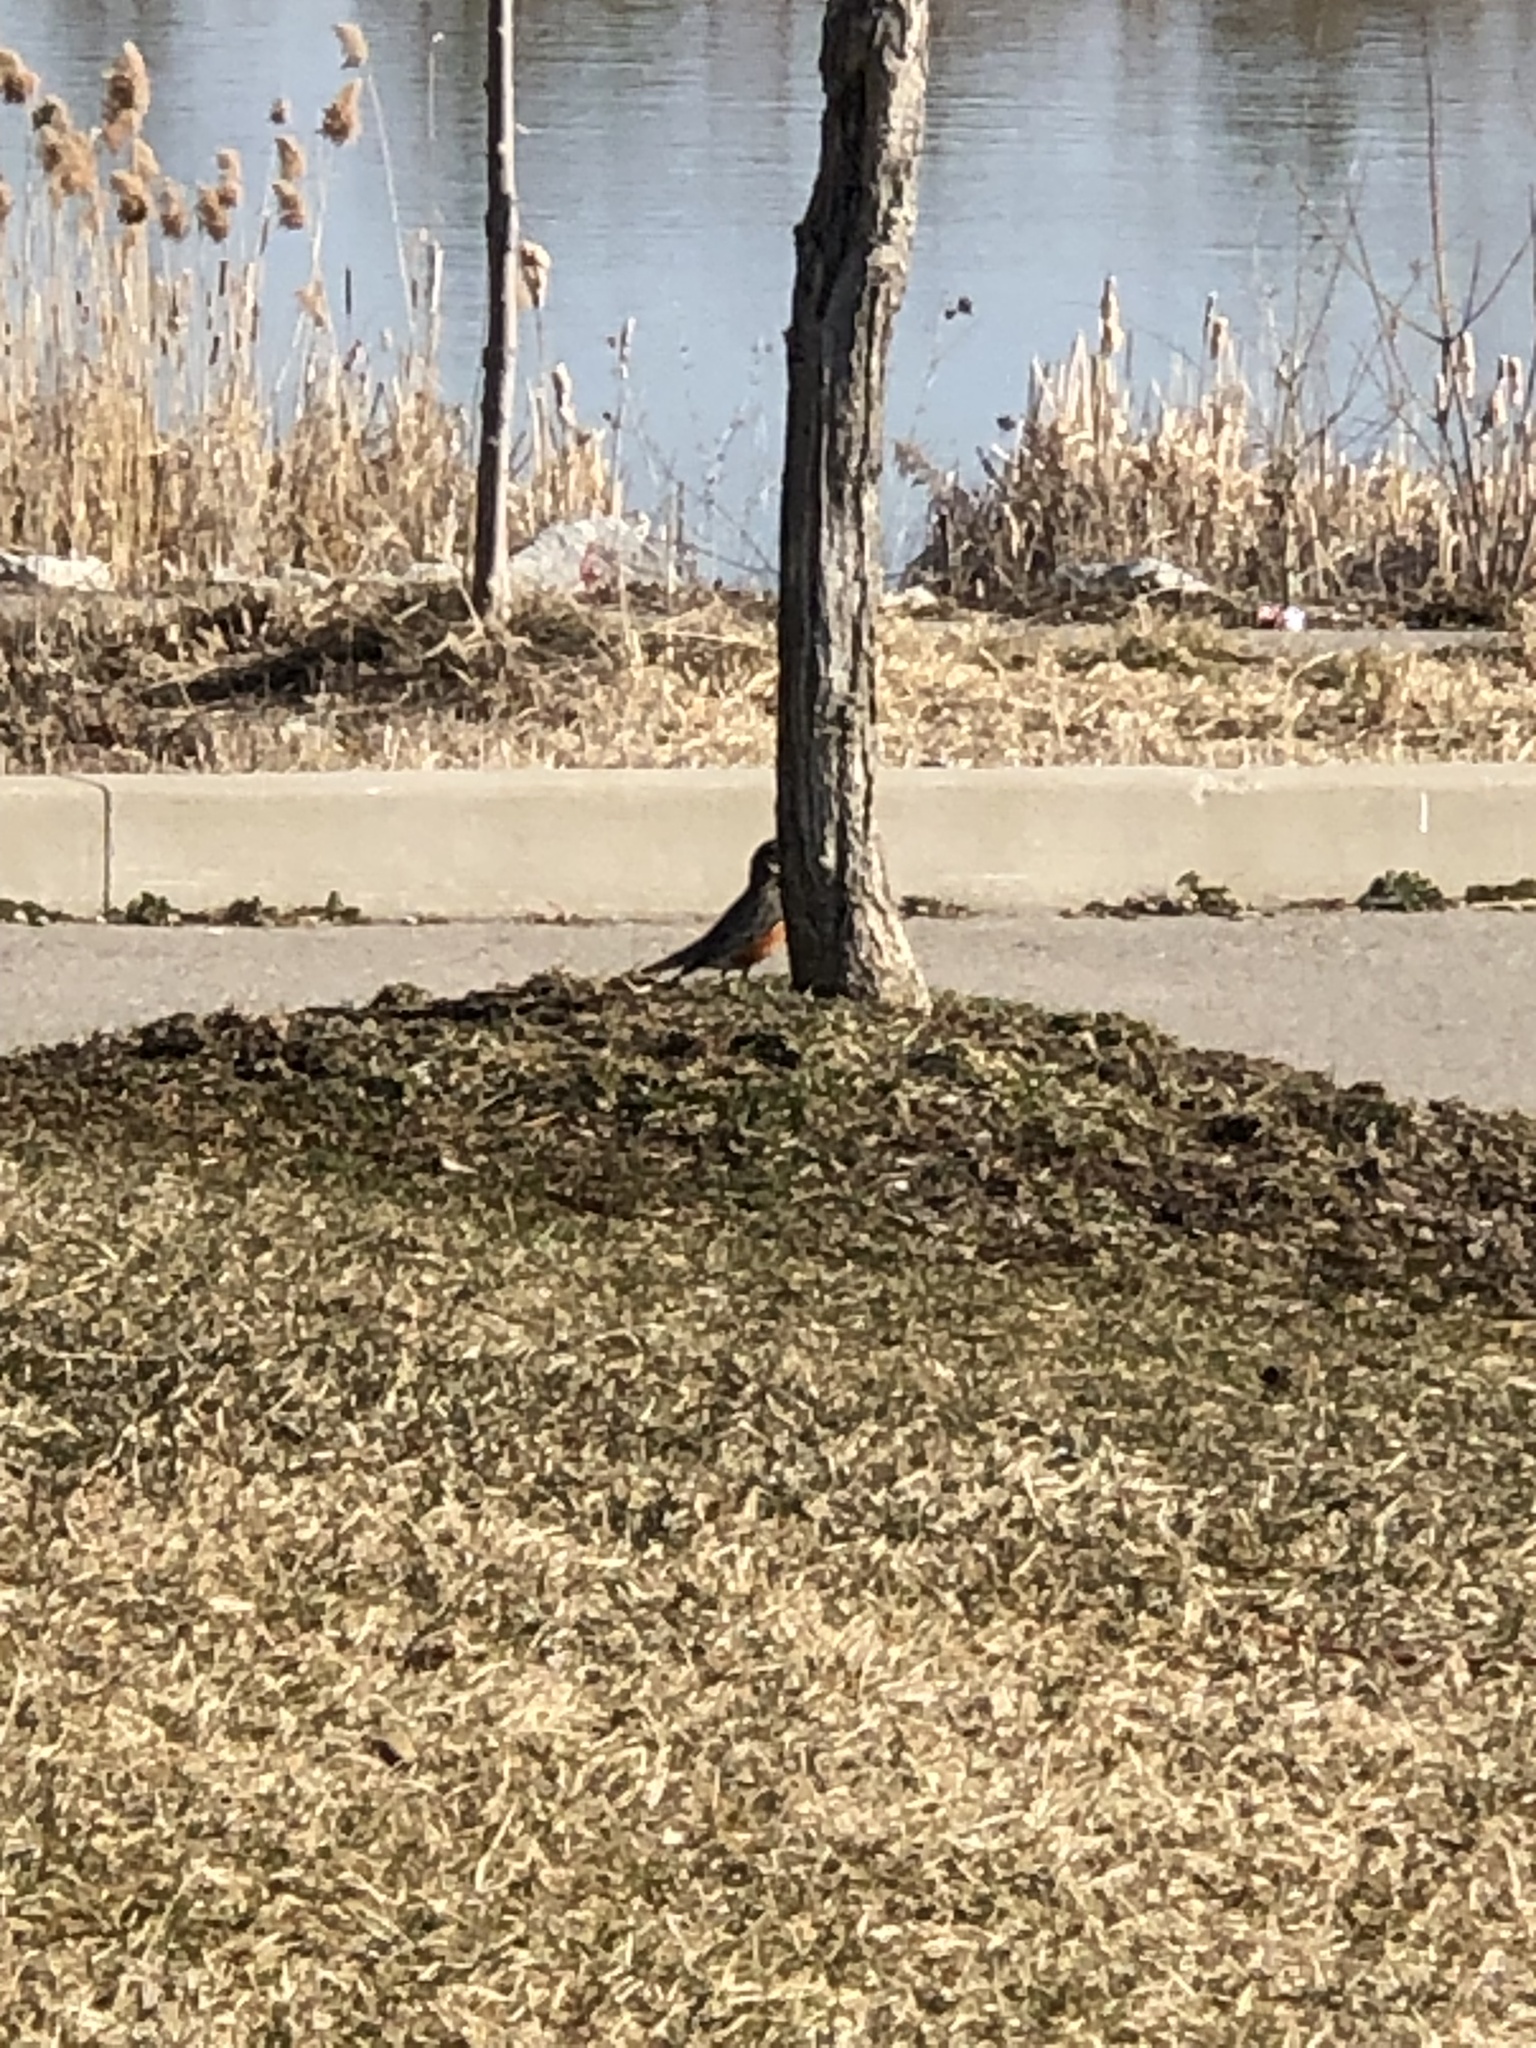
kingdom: Animalia
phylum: Chordata
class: Aves
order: Passeriformes
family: Turdidae
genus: Turdus
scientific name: Turdus migratorius
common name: American robin
